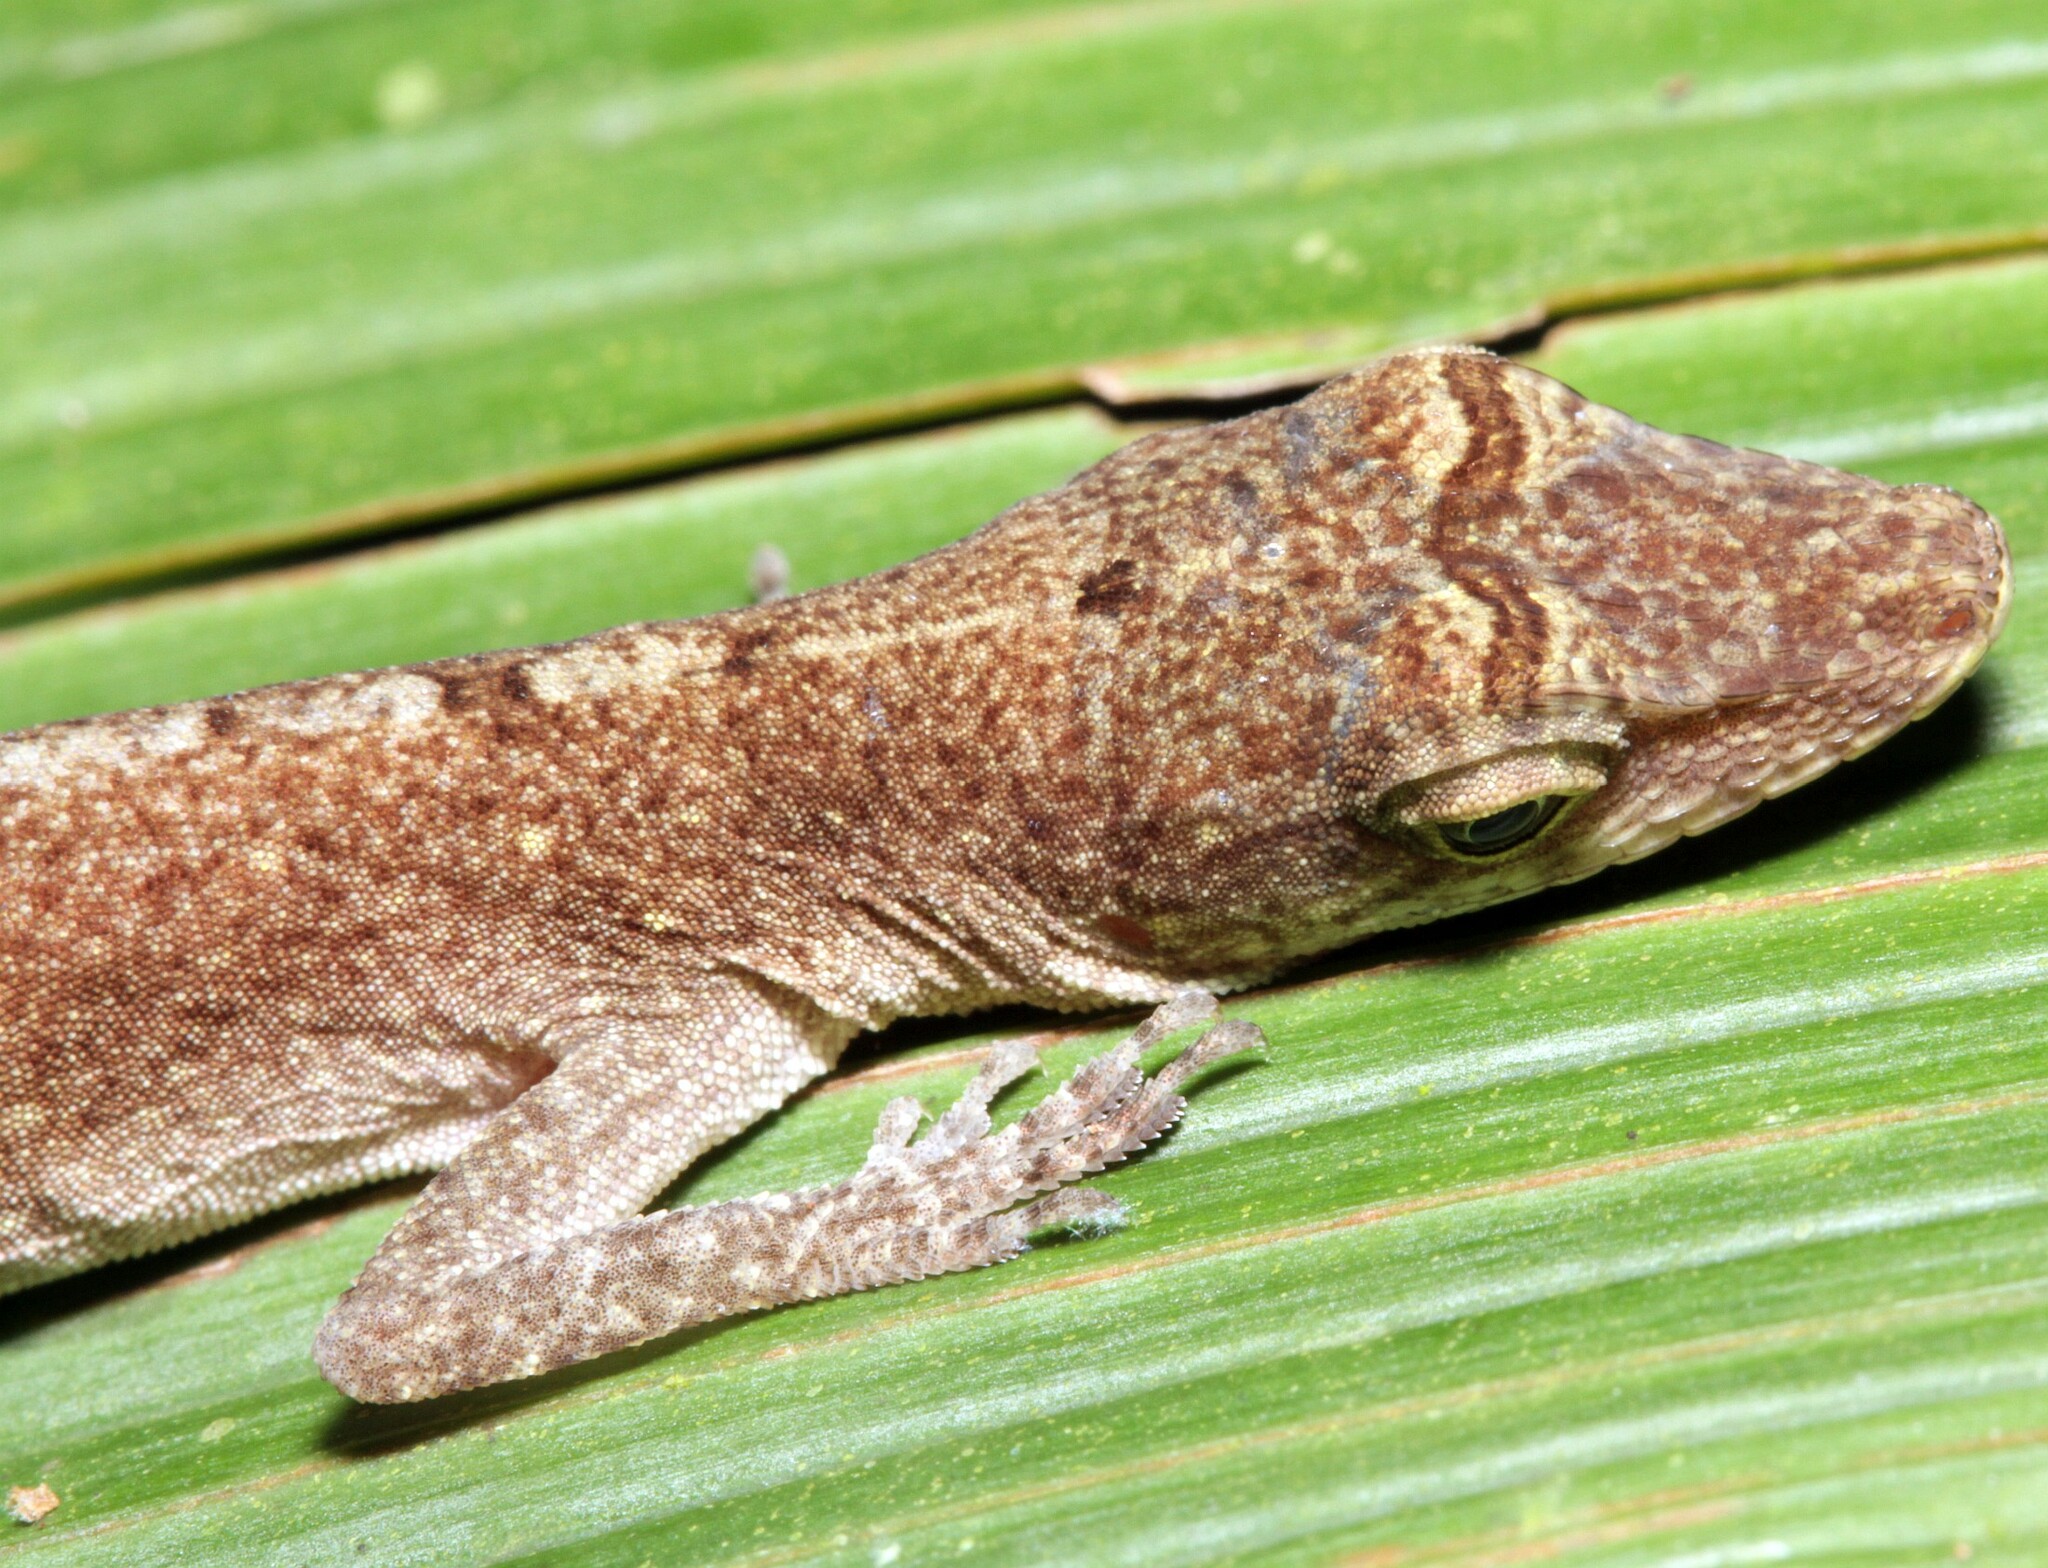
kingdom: Animalia
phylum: Chordata
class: Squamata
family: Dactyloidae
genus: Anolis
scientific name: Anolis fuscoauratus
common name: Brown-eared anole
